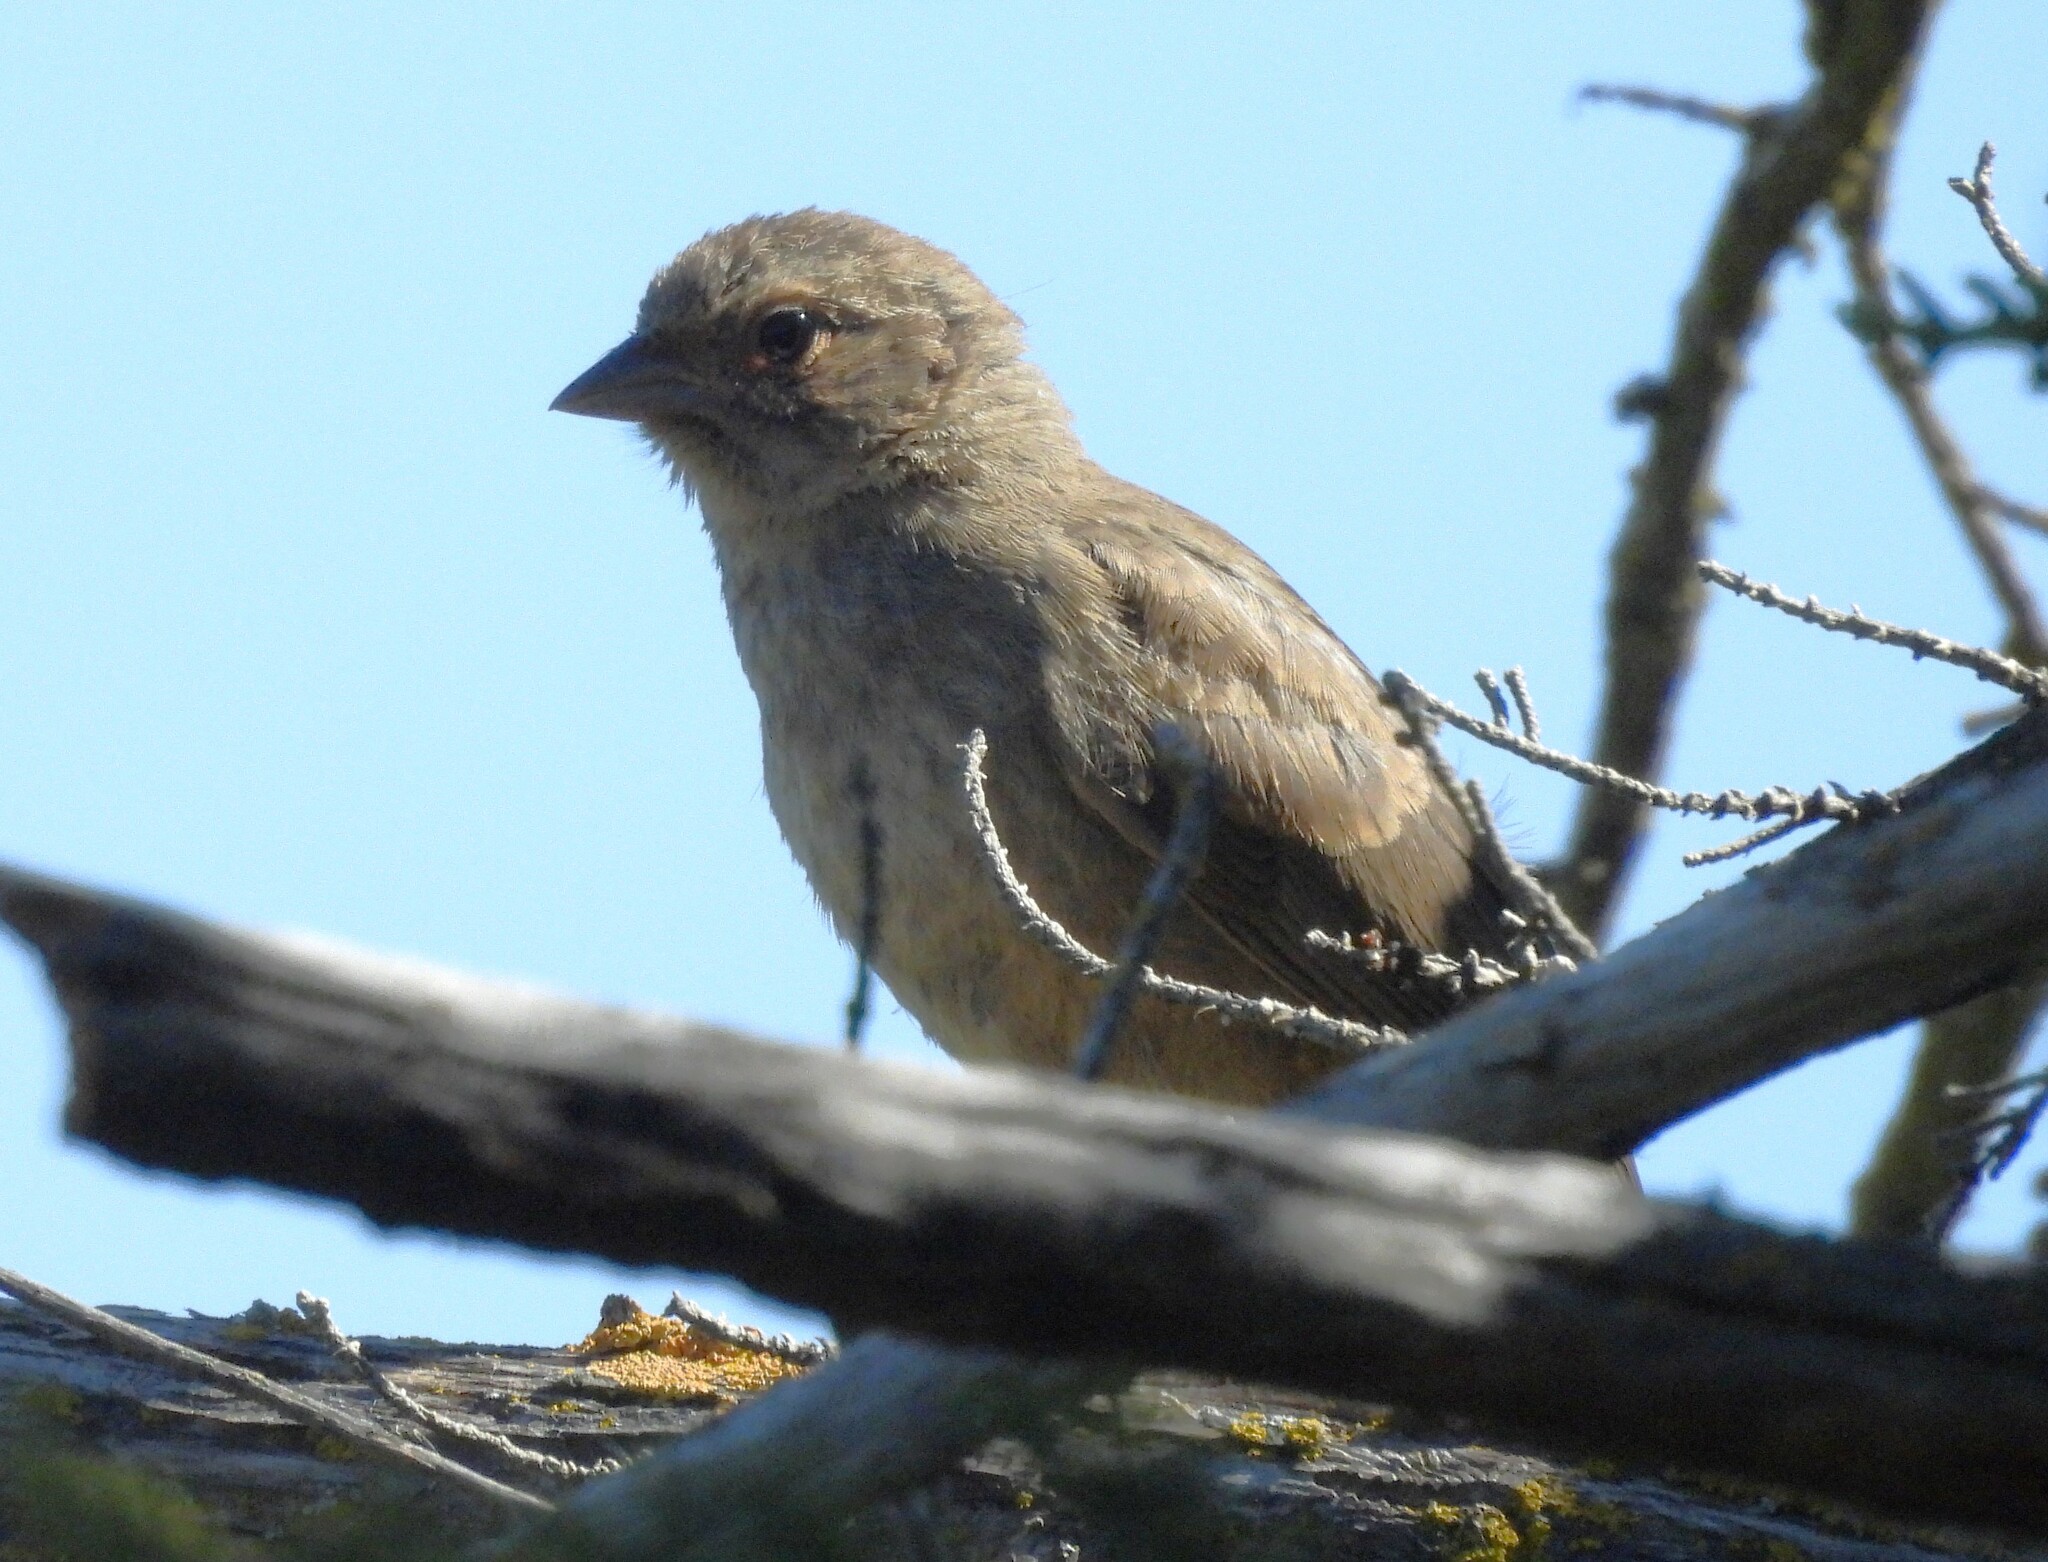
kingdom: Animalia
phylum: Chordata
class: Aves
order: Passeriformes
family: Passerellidae
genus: Melozone
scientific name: Melozone crissalis
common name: California towhee
